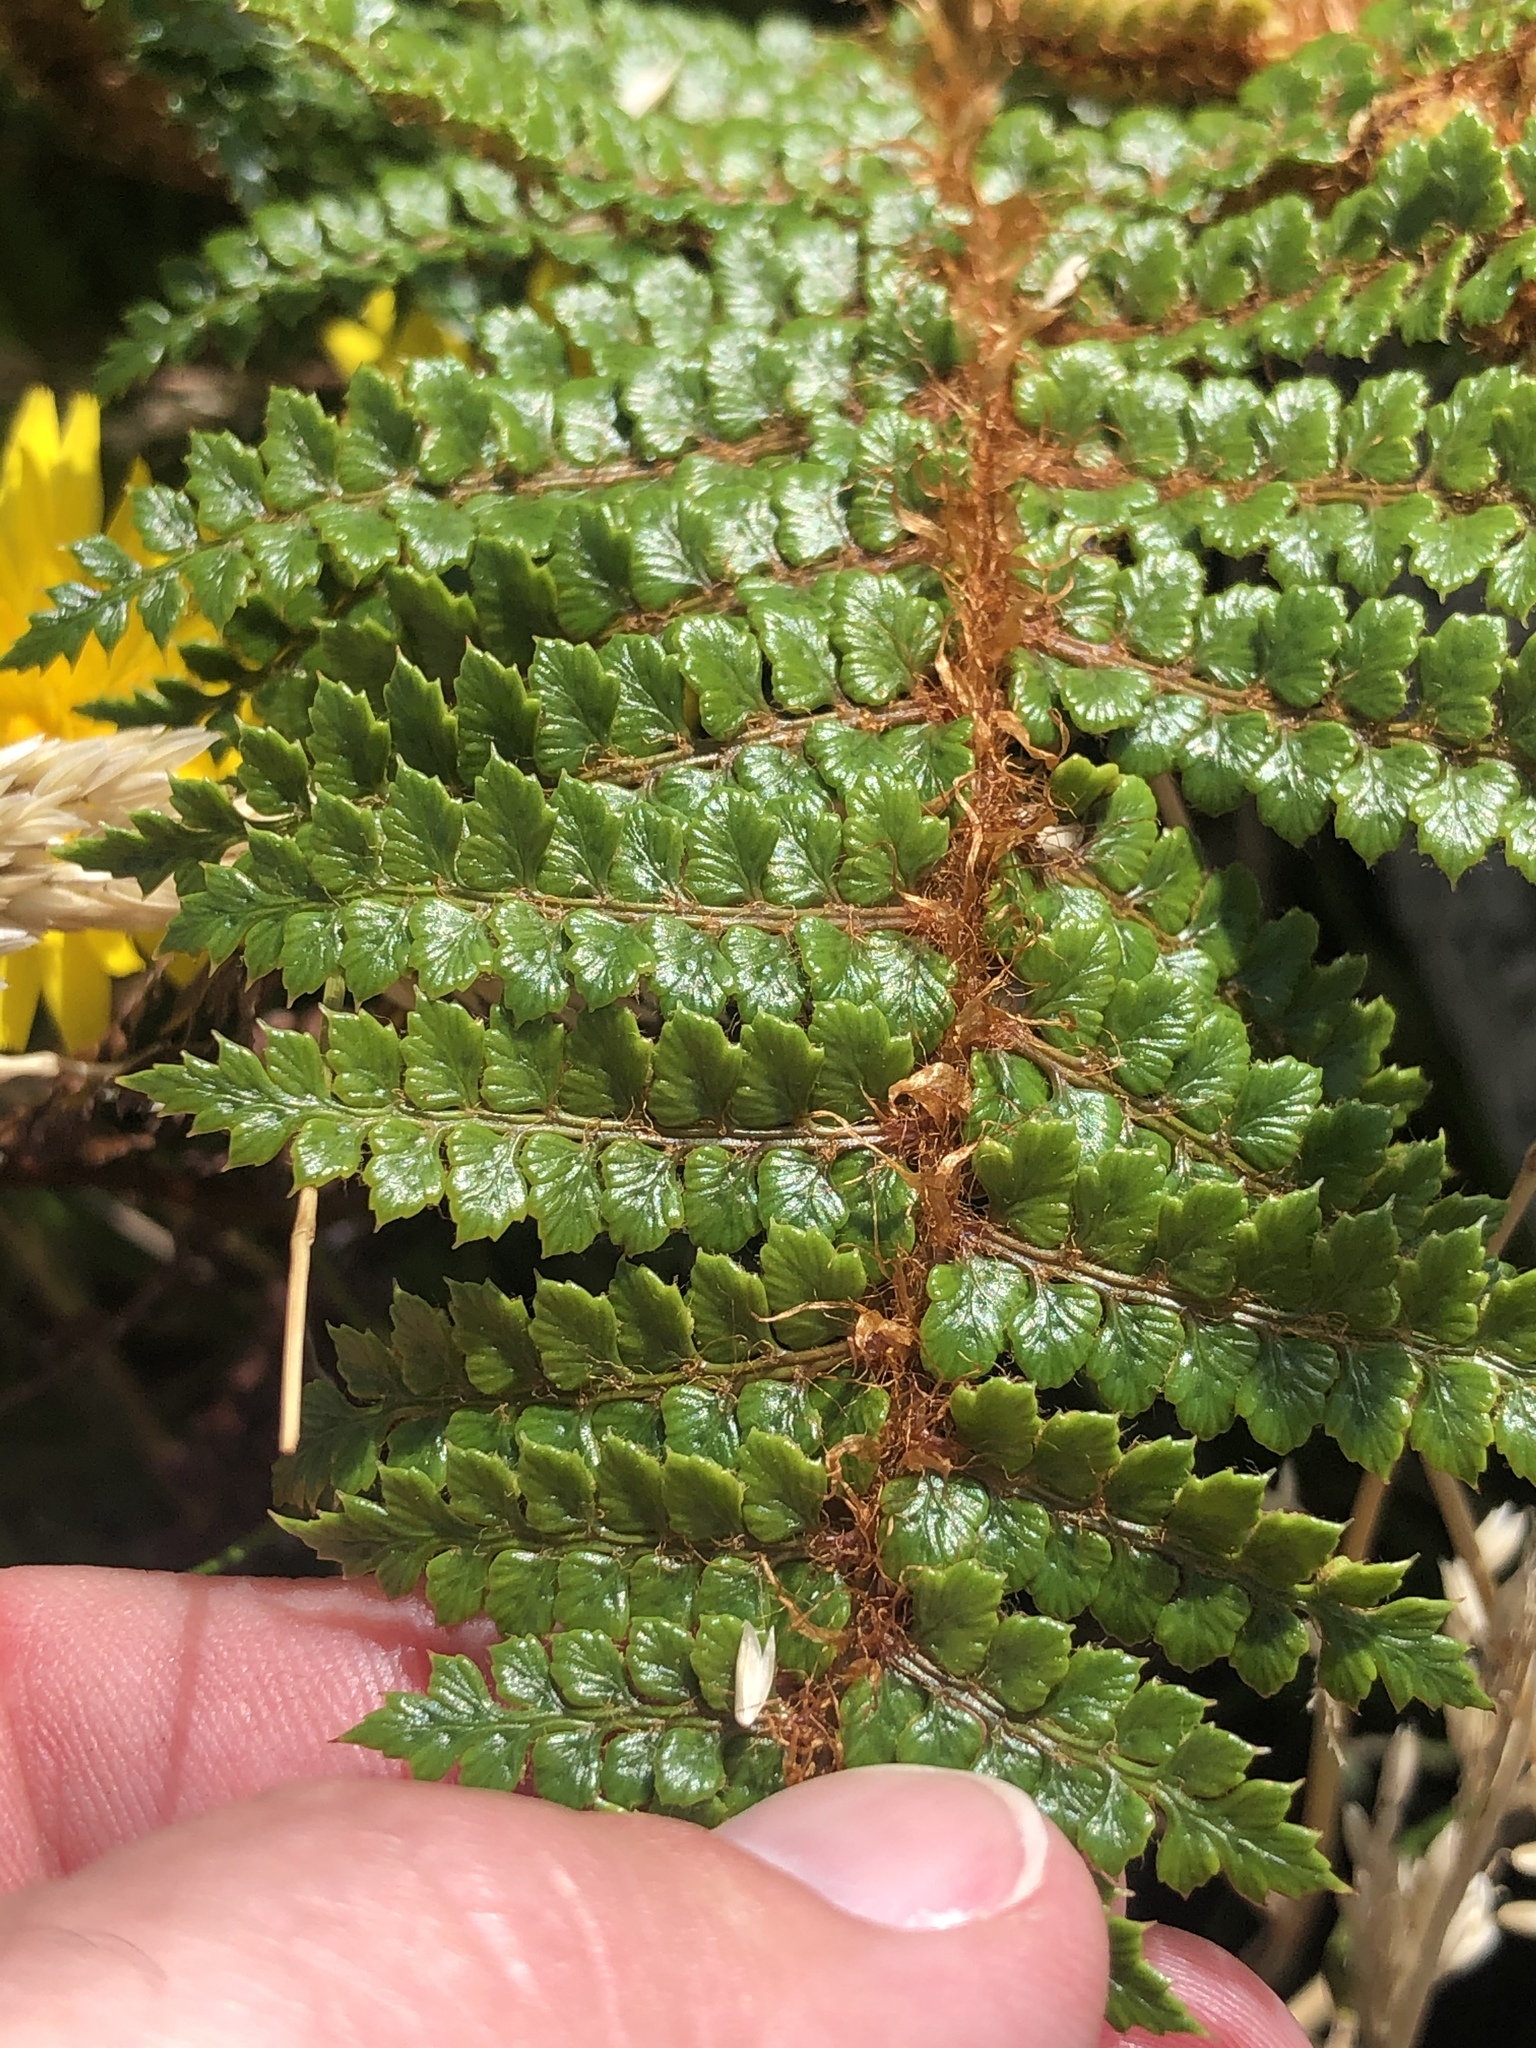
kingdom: Plantae
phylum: Tracheophyta
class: Polypodiopsida
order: Polypodiales
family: Dryopteridaceae
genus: Polystichum
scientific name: Polystichum vestitum
